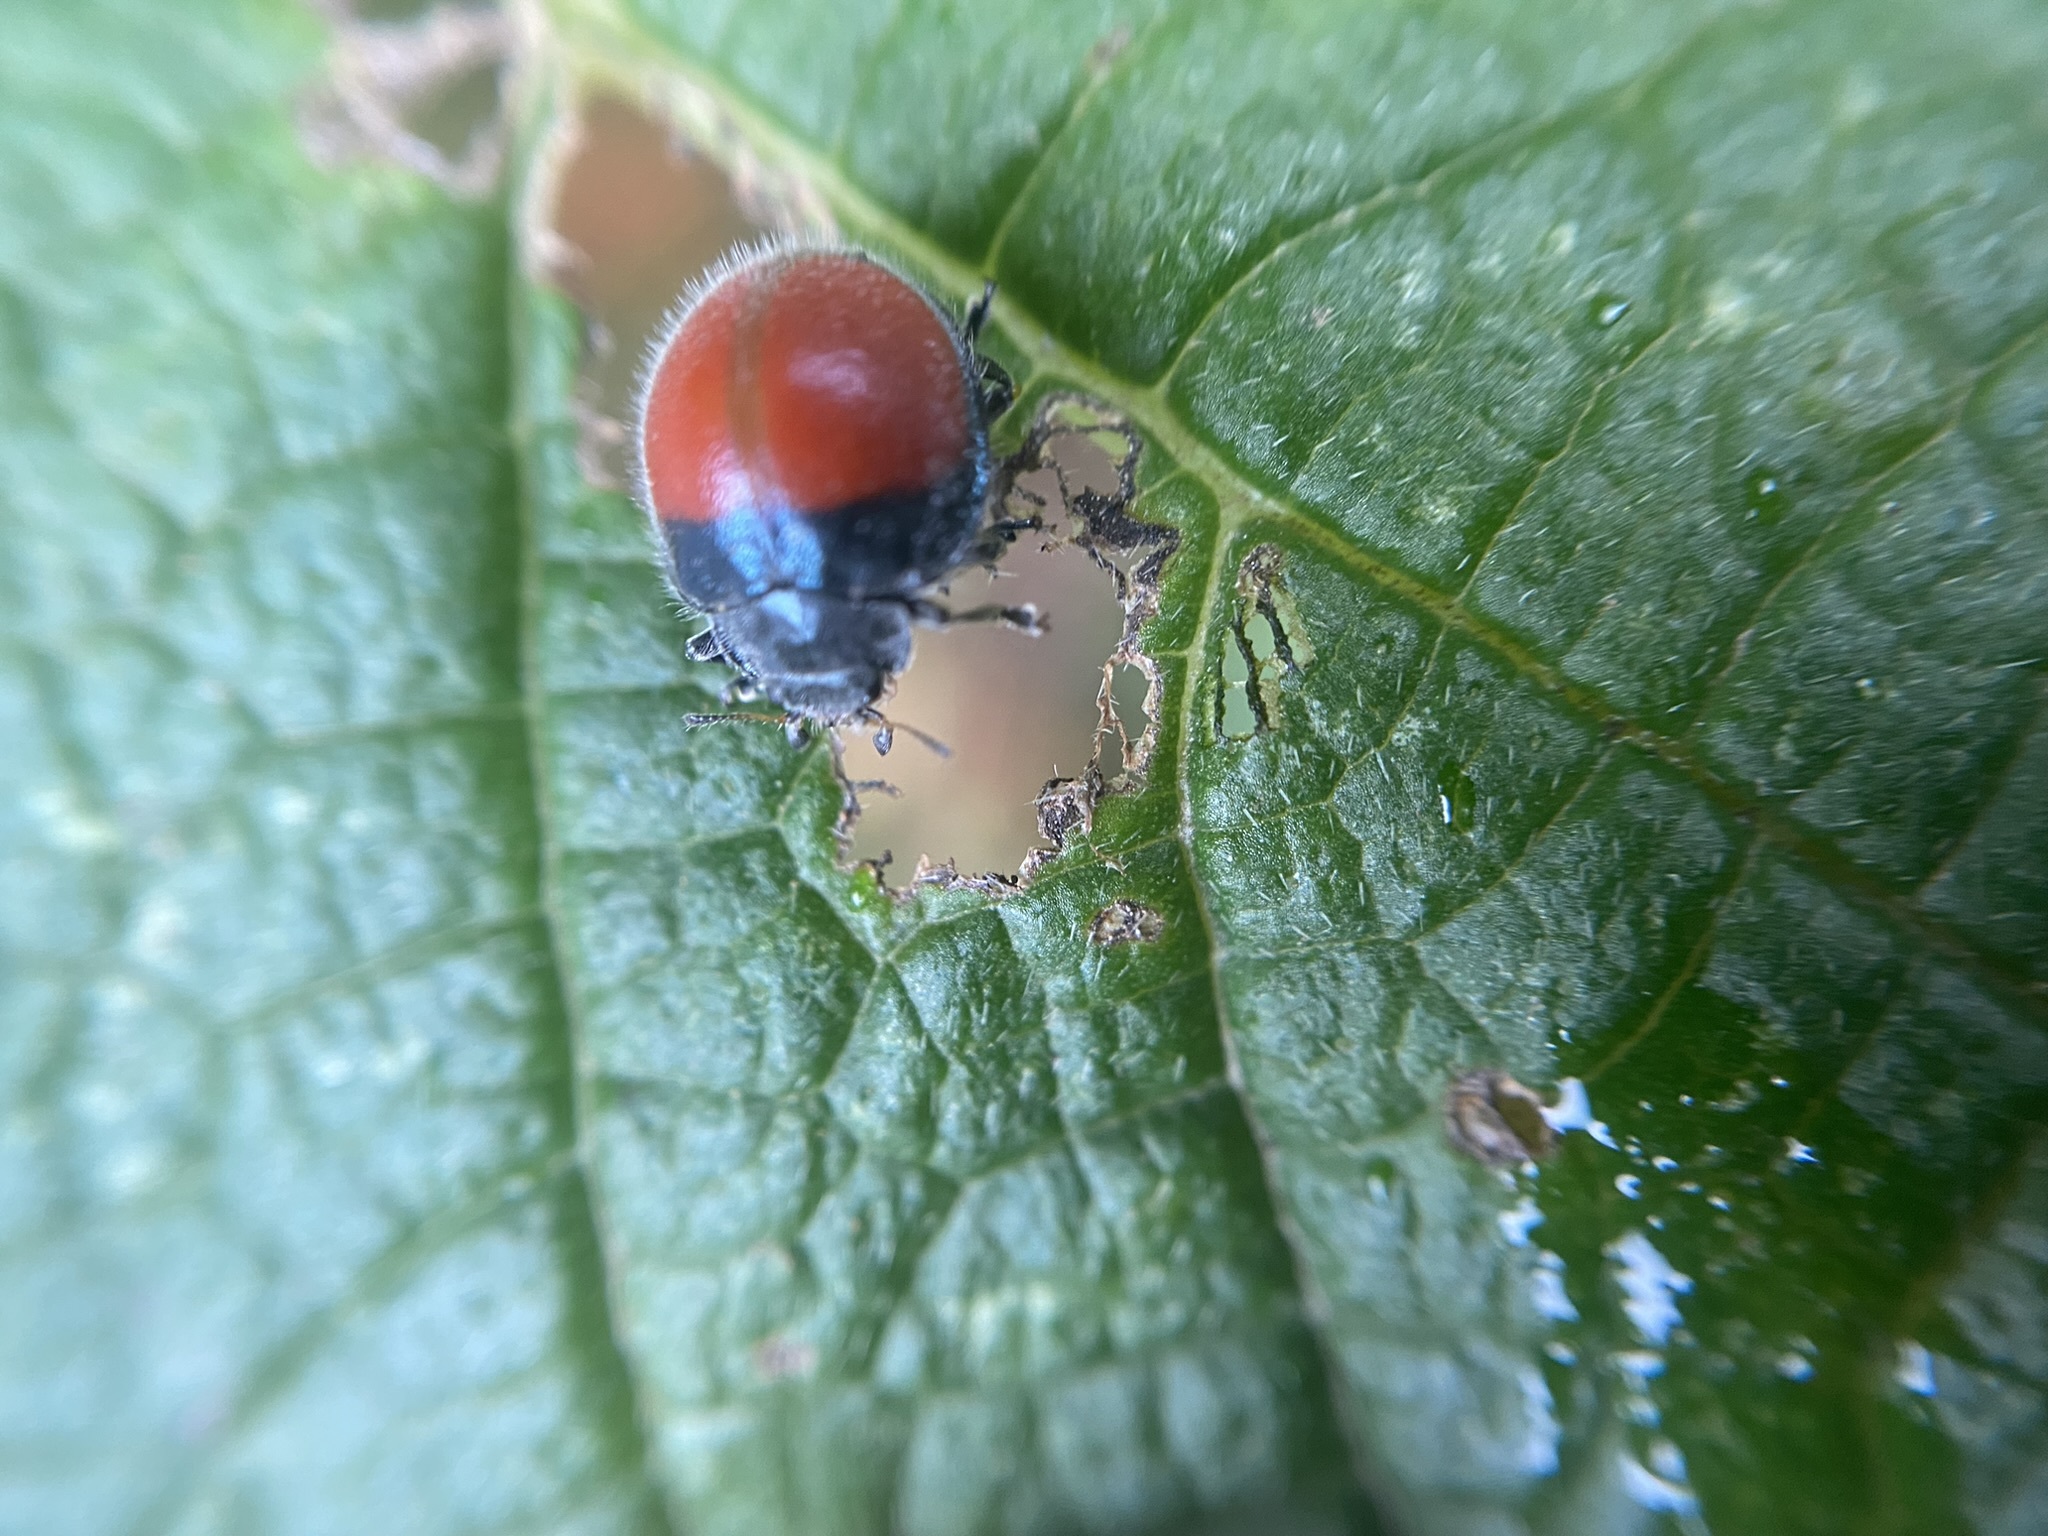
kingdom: Animalia
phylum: Arthropoda
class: Insecta
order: Coleoptera
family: Coccinellidae
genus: Toxotoma
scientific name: Toxotoma
